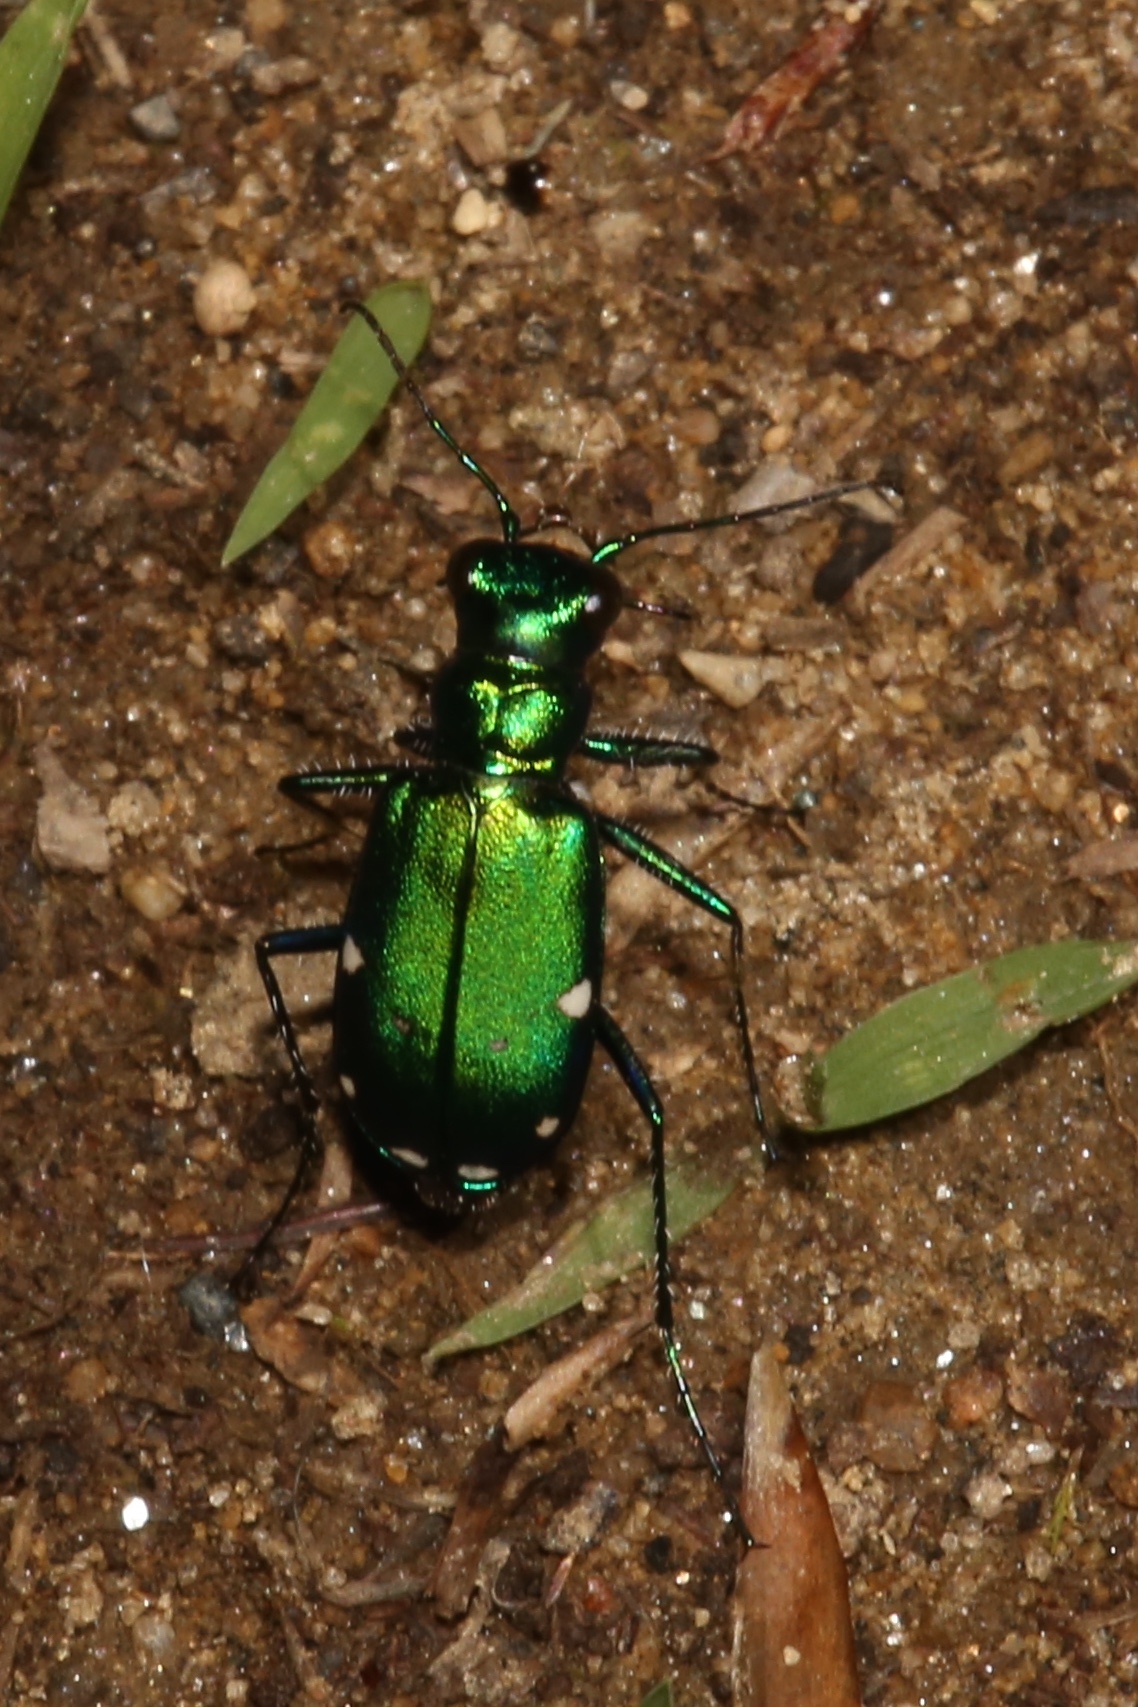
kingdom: Animalia
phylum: Arthropoda
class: Insecta
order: Coleoptera
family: Carabidae
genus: Cicindela
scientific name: Cicindela sexguttata
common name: Six-spotted tiger beetle
